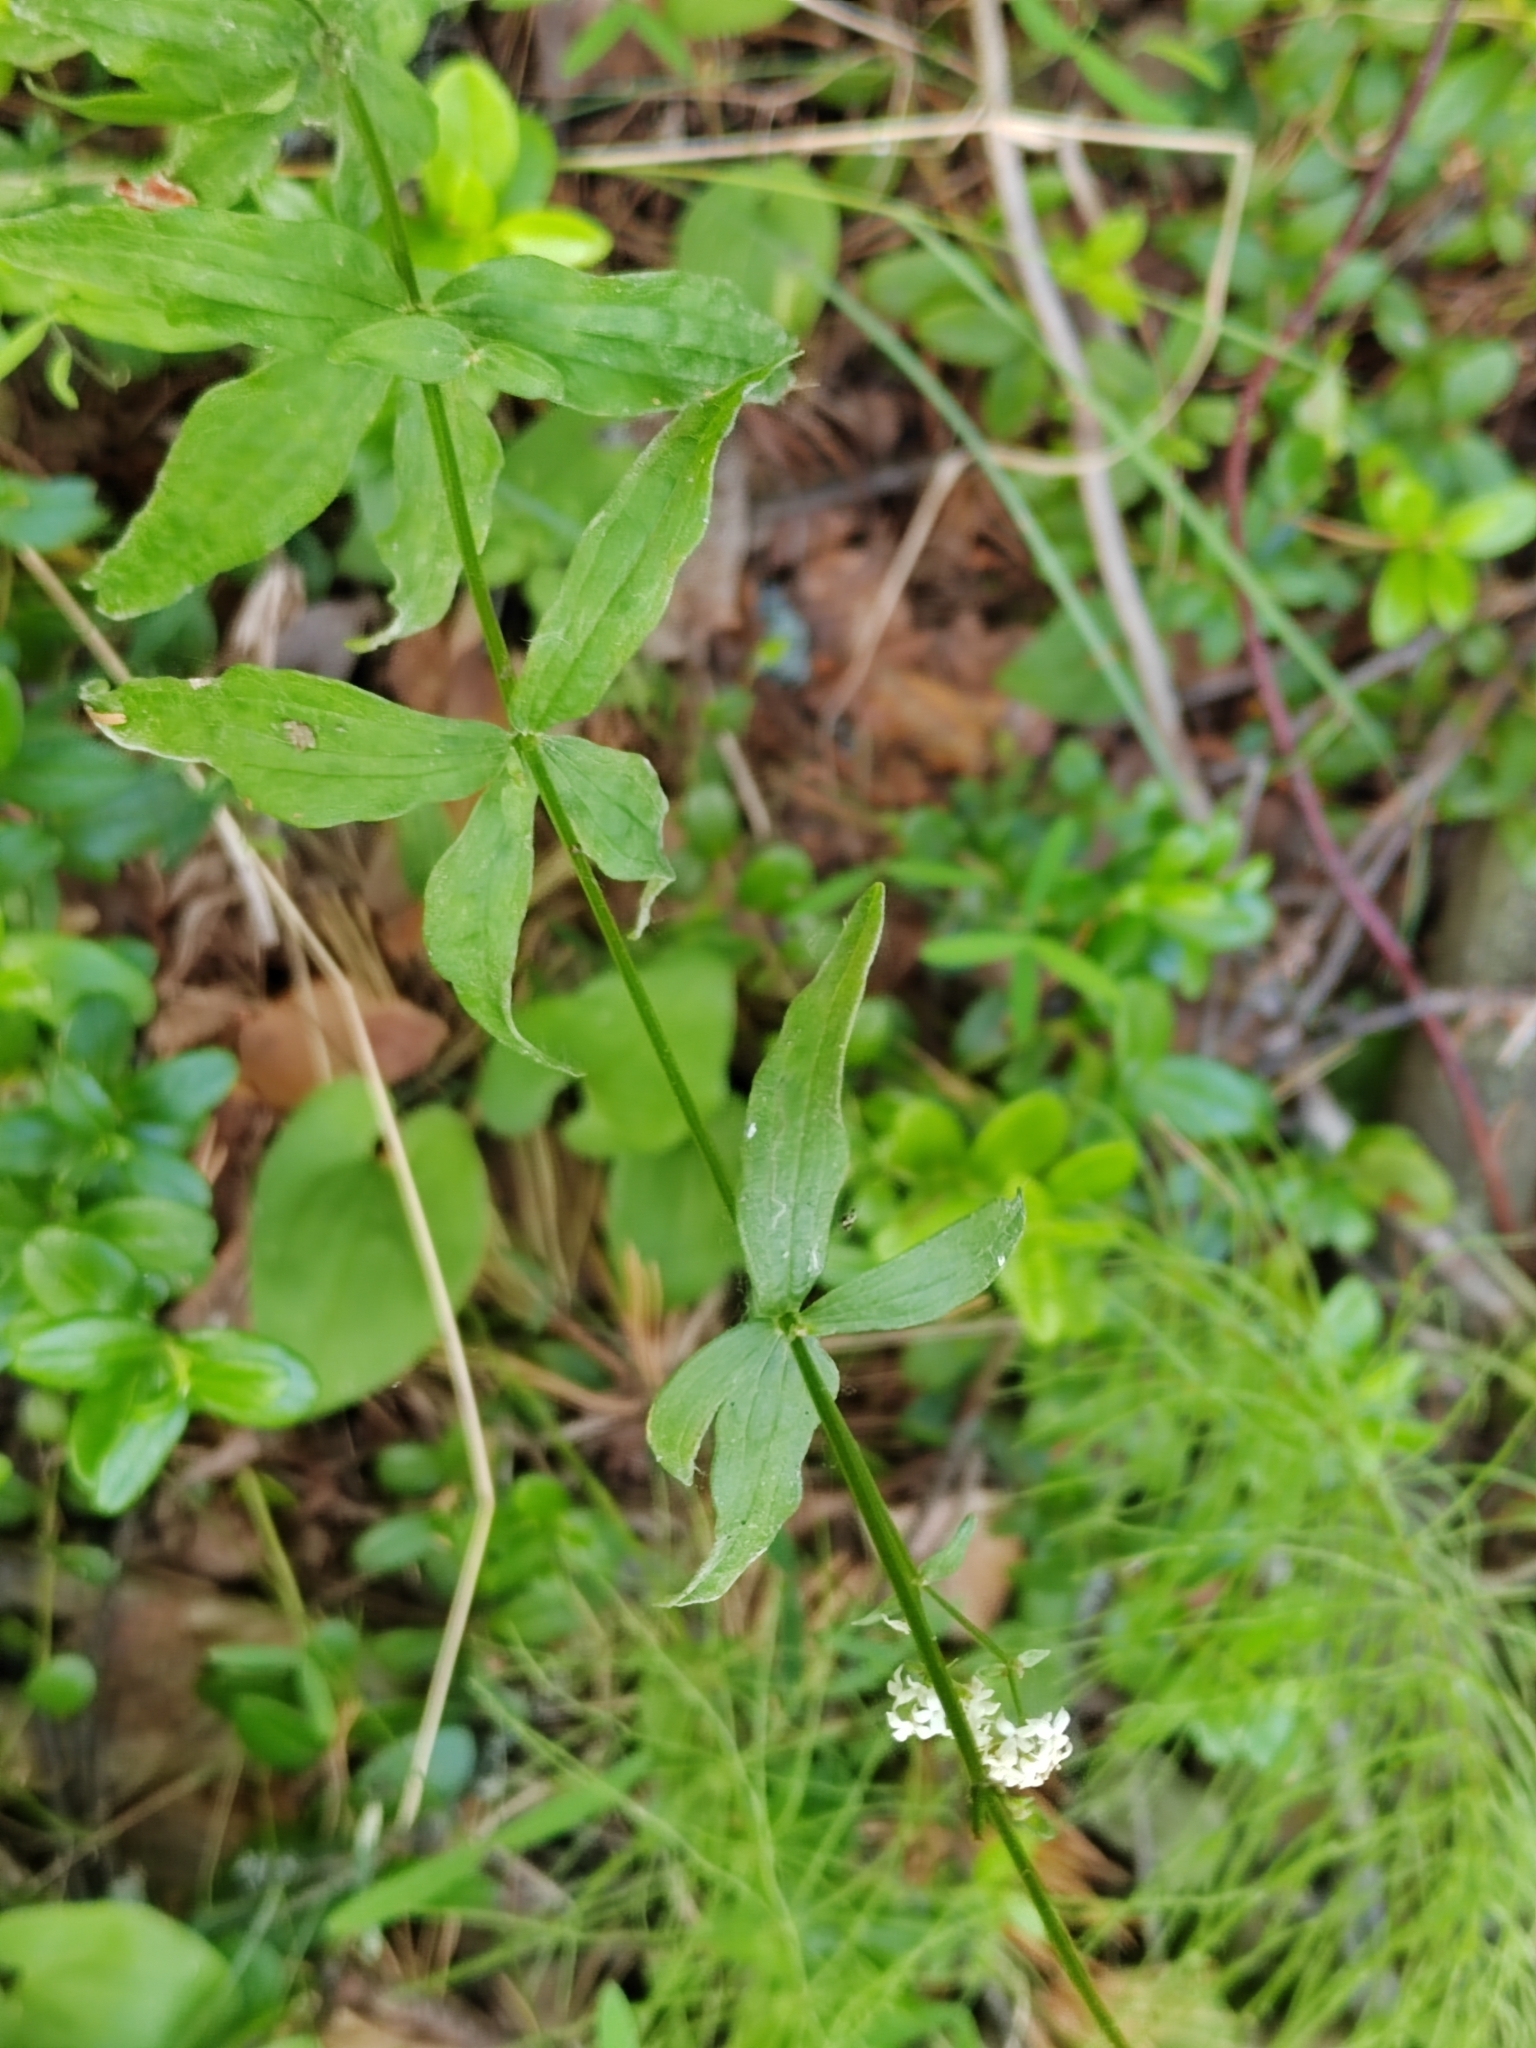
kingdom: Plantae
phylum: Tracheophyta
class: Magnoliopsida
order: Gentianales
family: Rubiaceae
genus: Galium
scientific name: Galium boreale
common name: Northern bedstraw
